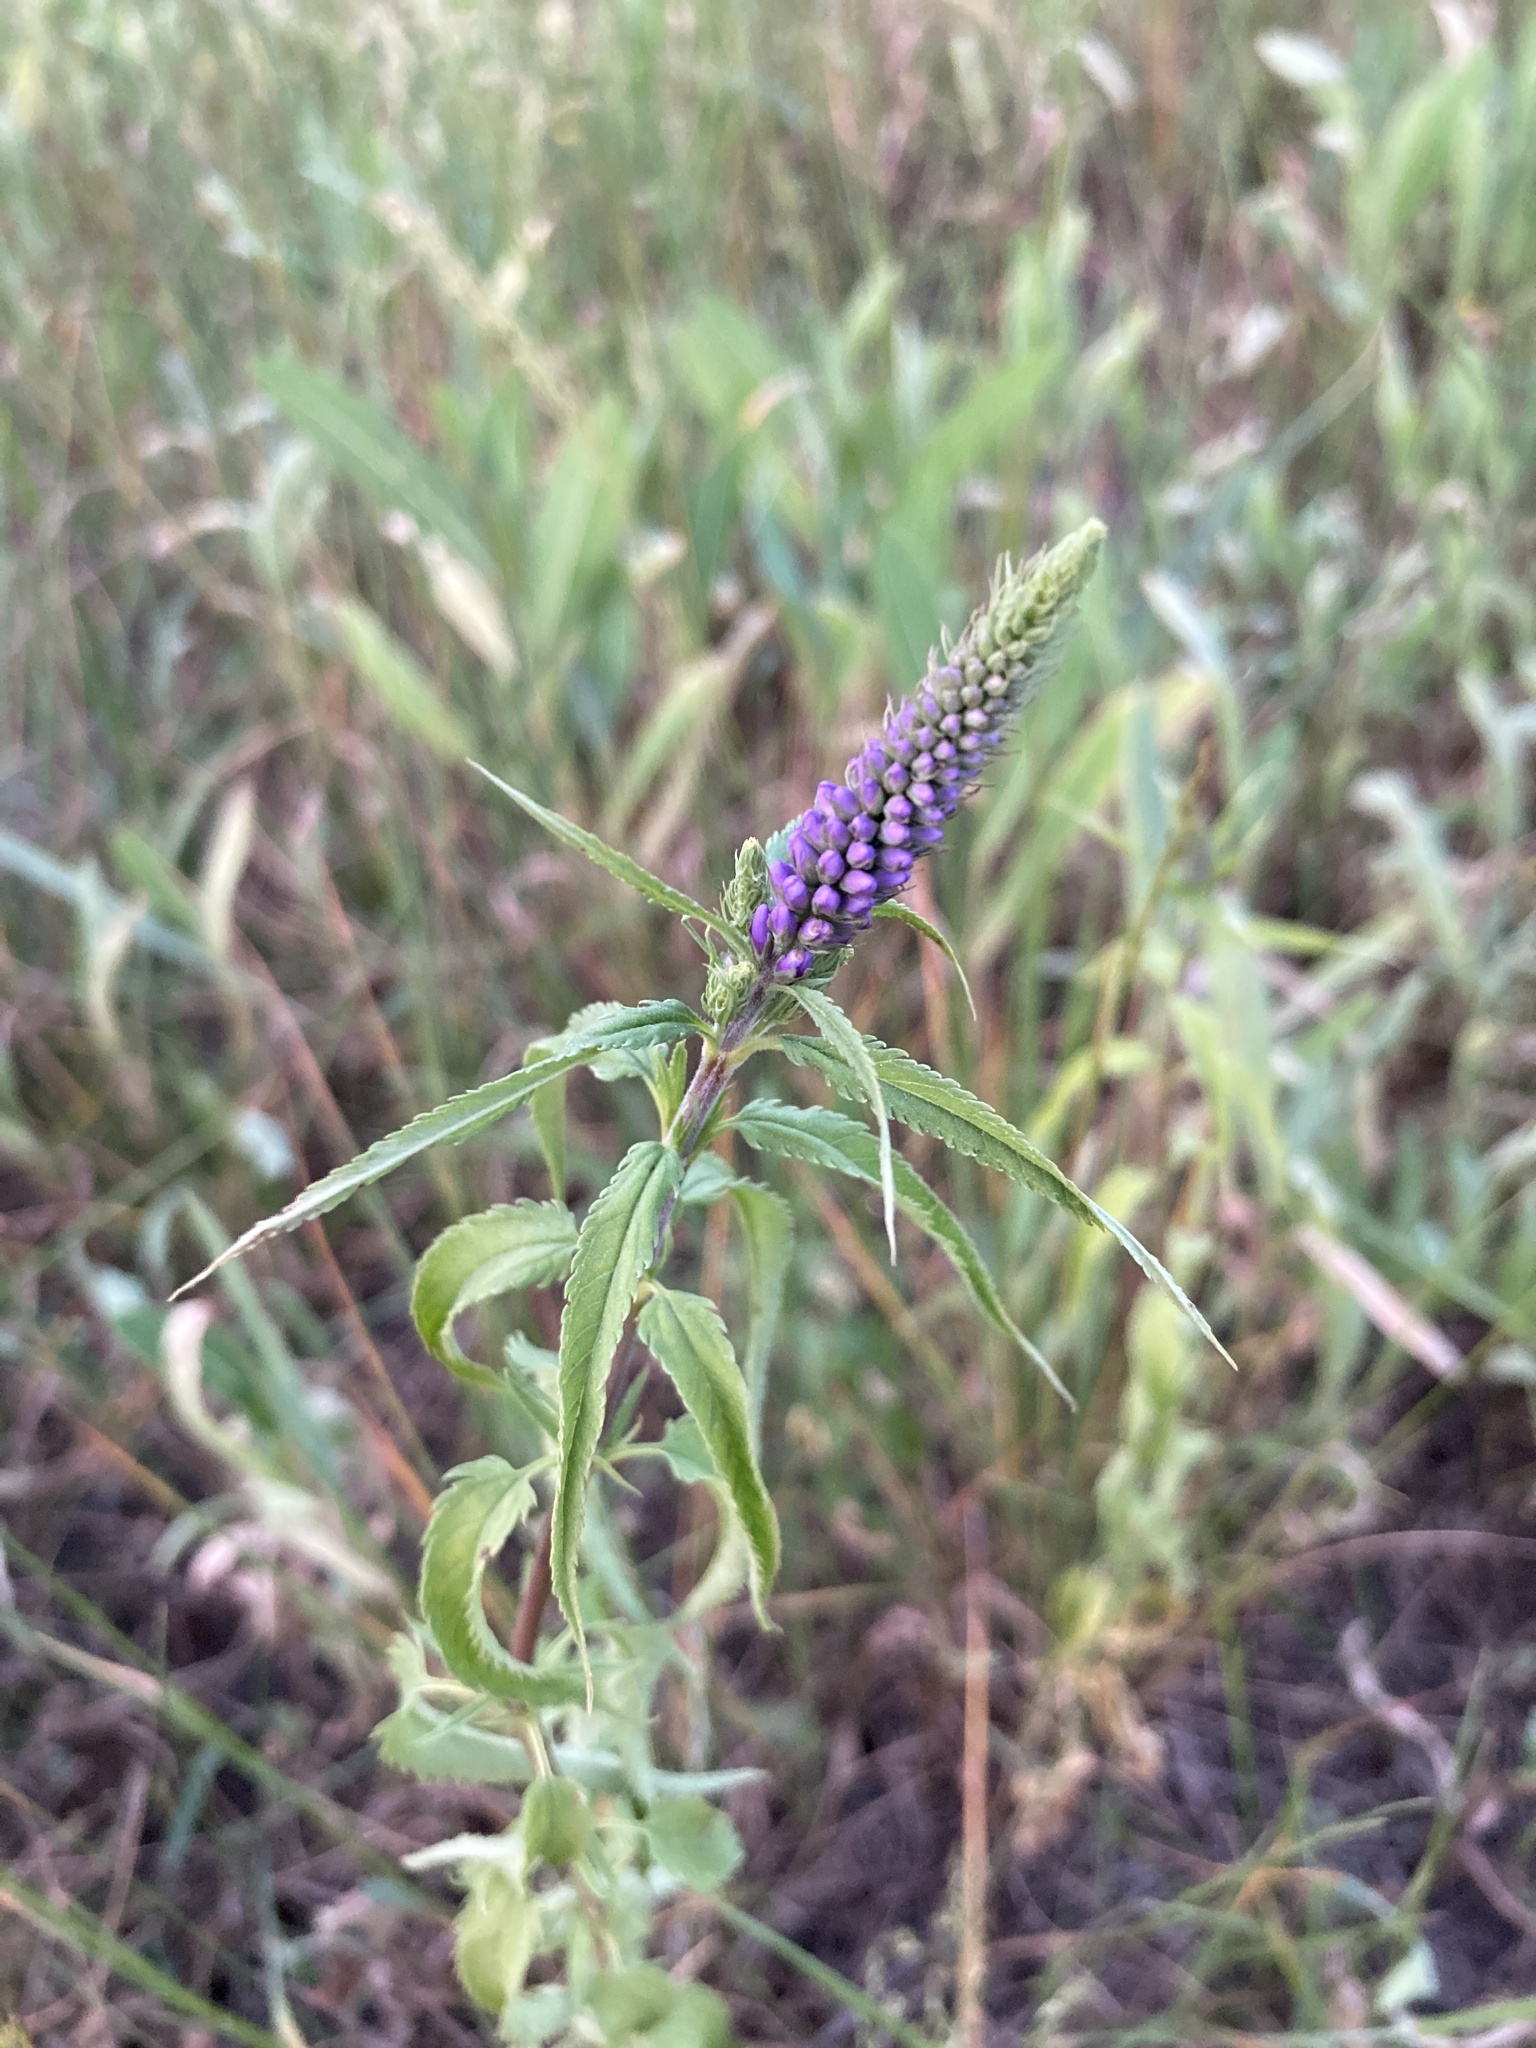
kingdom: Plantae
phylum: Tracheophyta
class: Magnoliopsida
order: Lamiales
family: Plantaginaceae
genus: Veronica
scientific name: Veronica longifolia
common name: Garden speedwell
